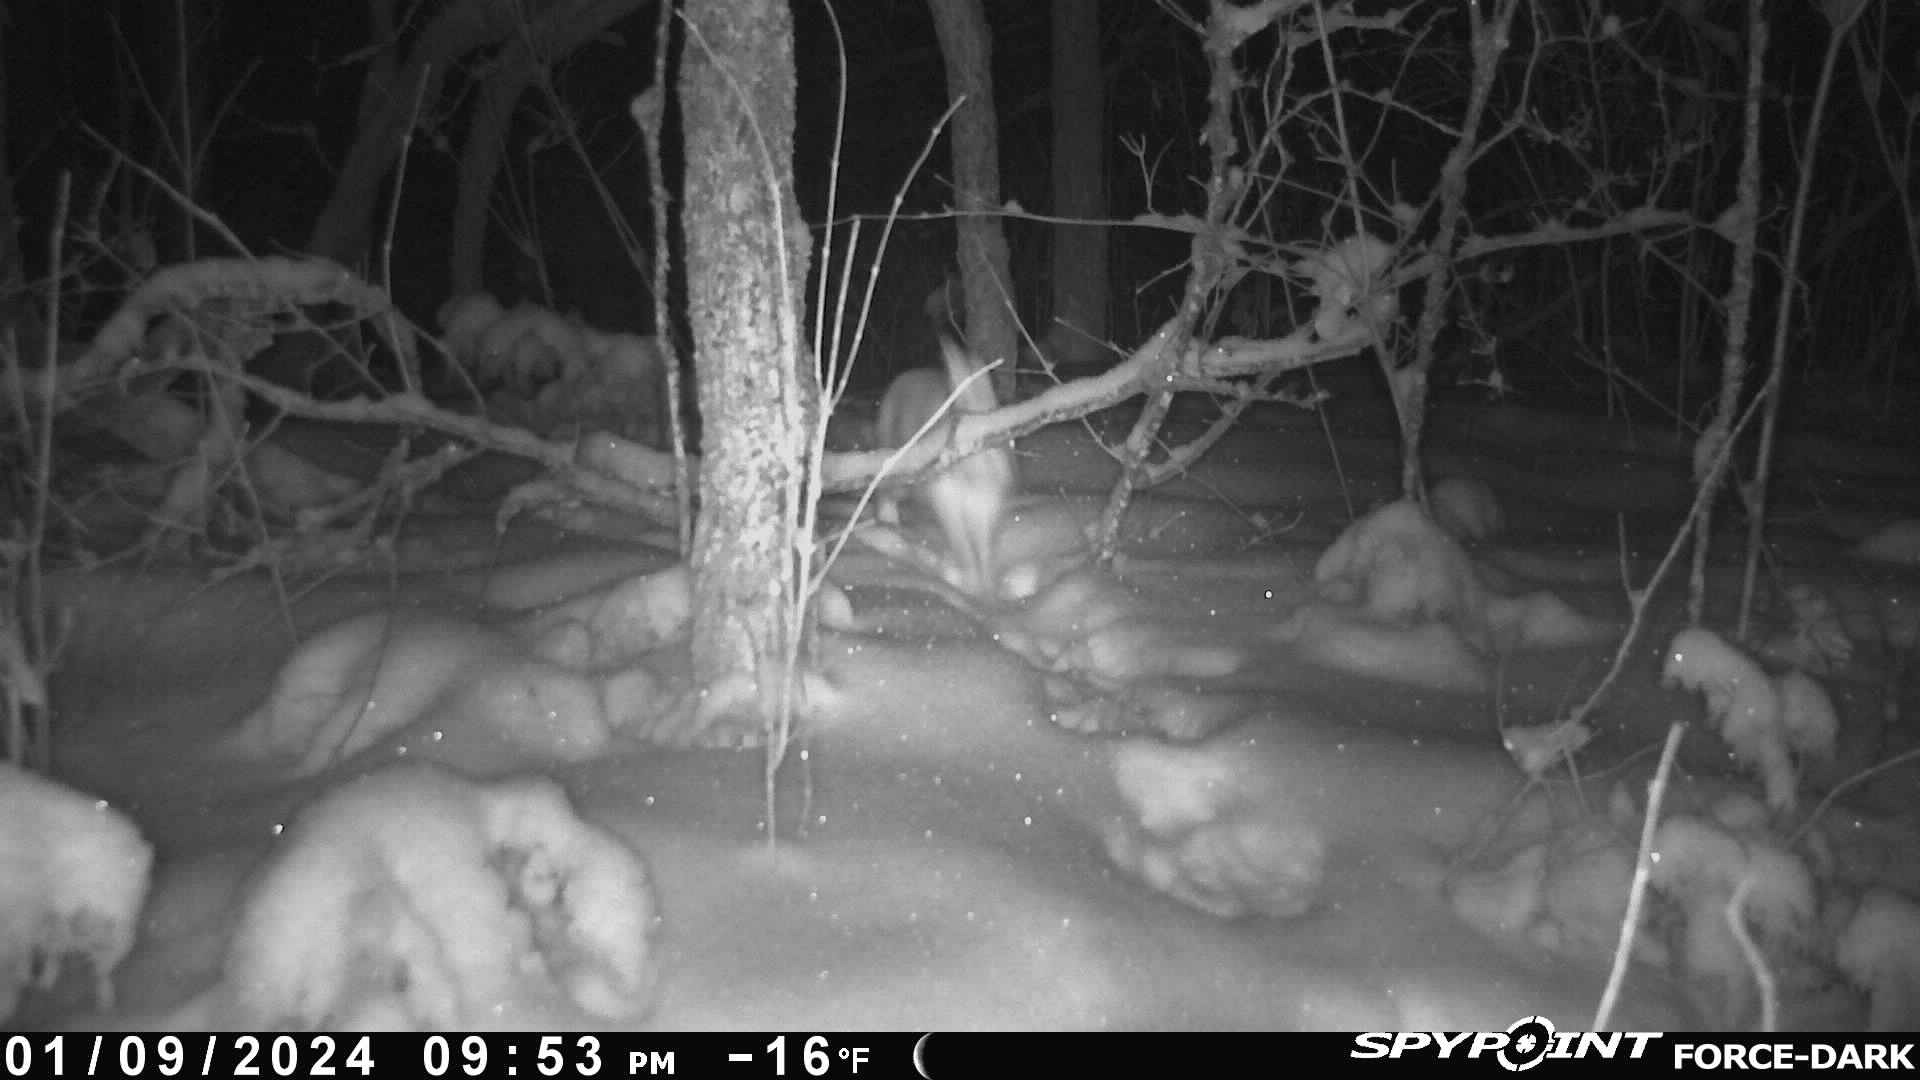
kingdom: Animalia
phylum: Chordata
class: Mammalia
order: Lagomorpha
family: Leporidae
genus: Lepus
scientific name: Lepus americanus
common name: Snowshoe hare
